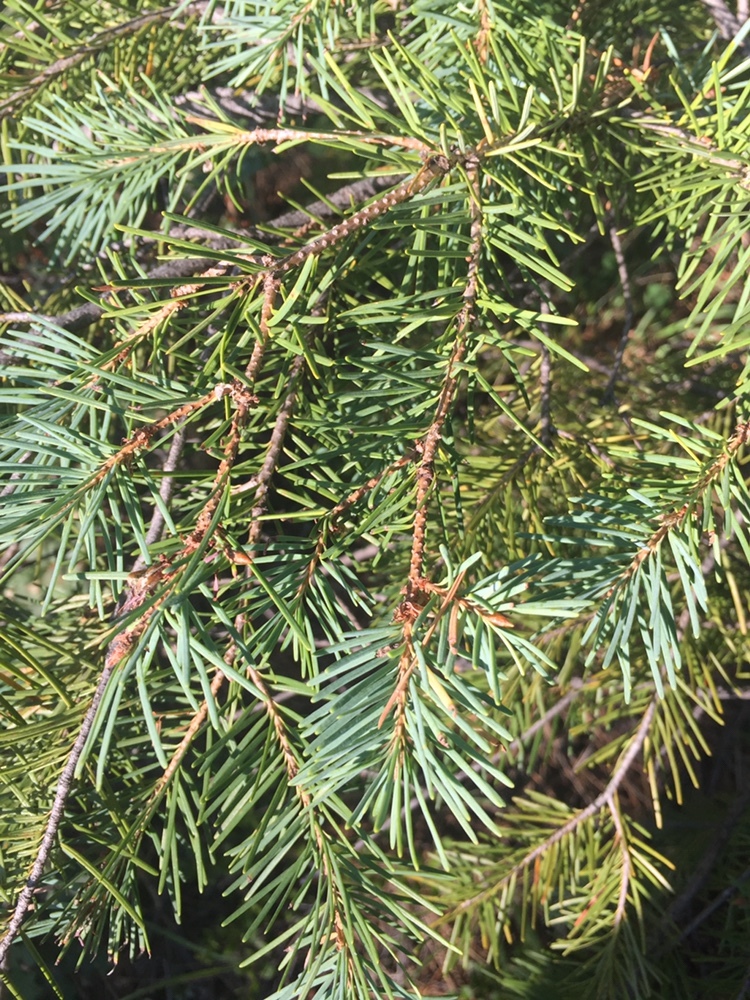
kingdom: Plantae
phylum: Tracheophyta
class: Pinopsida
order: Pinales
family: Pinaceae
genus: Pseudotsuga
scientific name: Pseudotsuga menziesii
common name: Douglas fir
